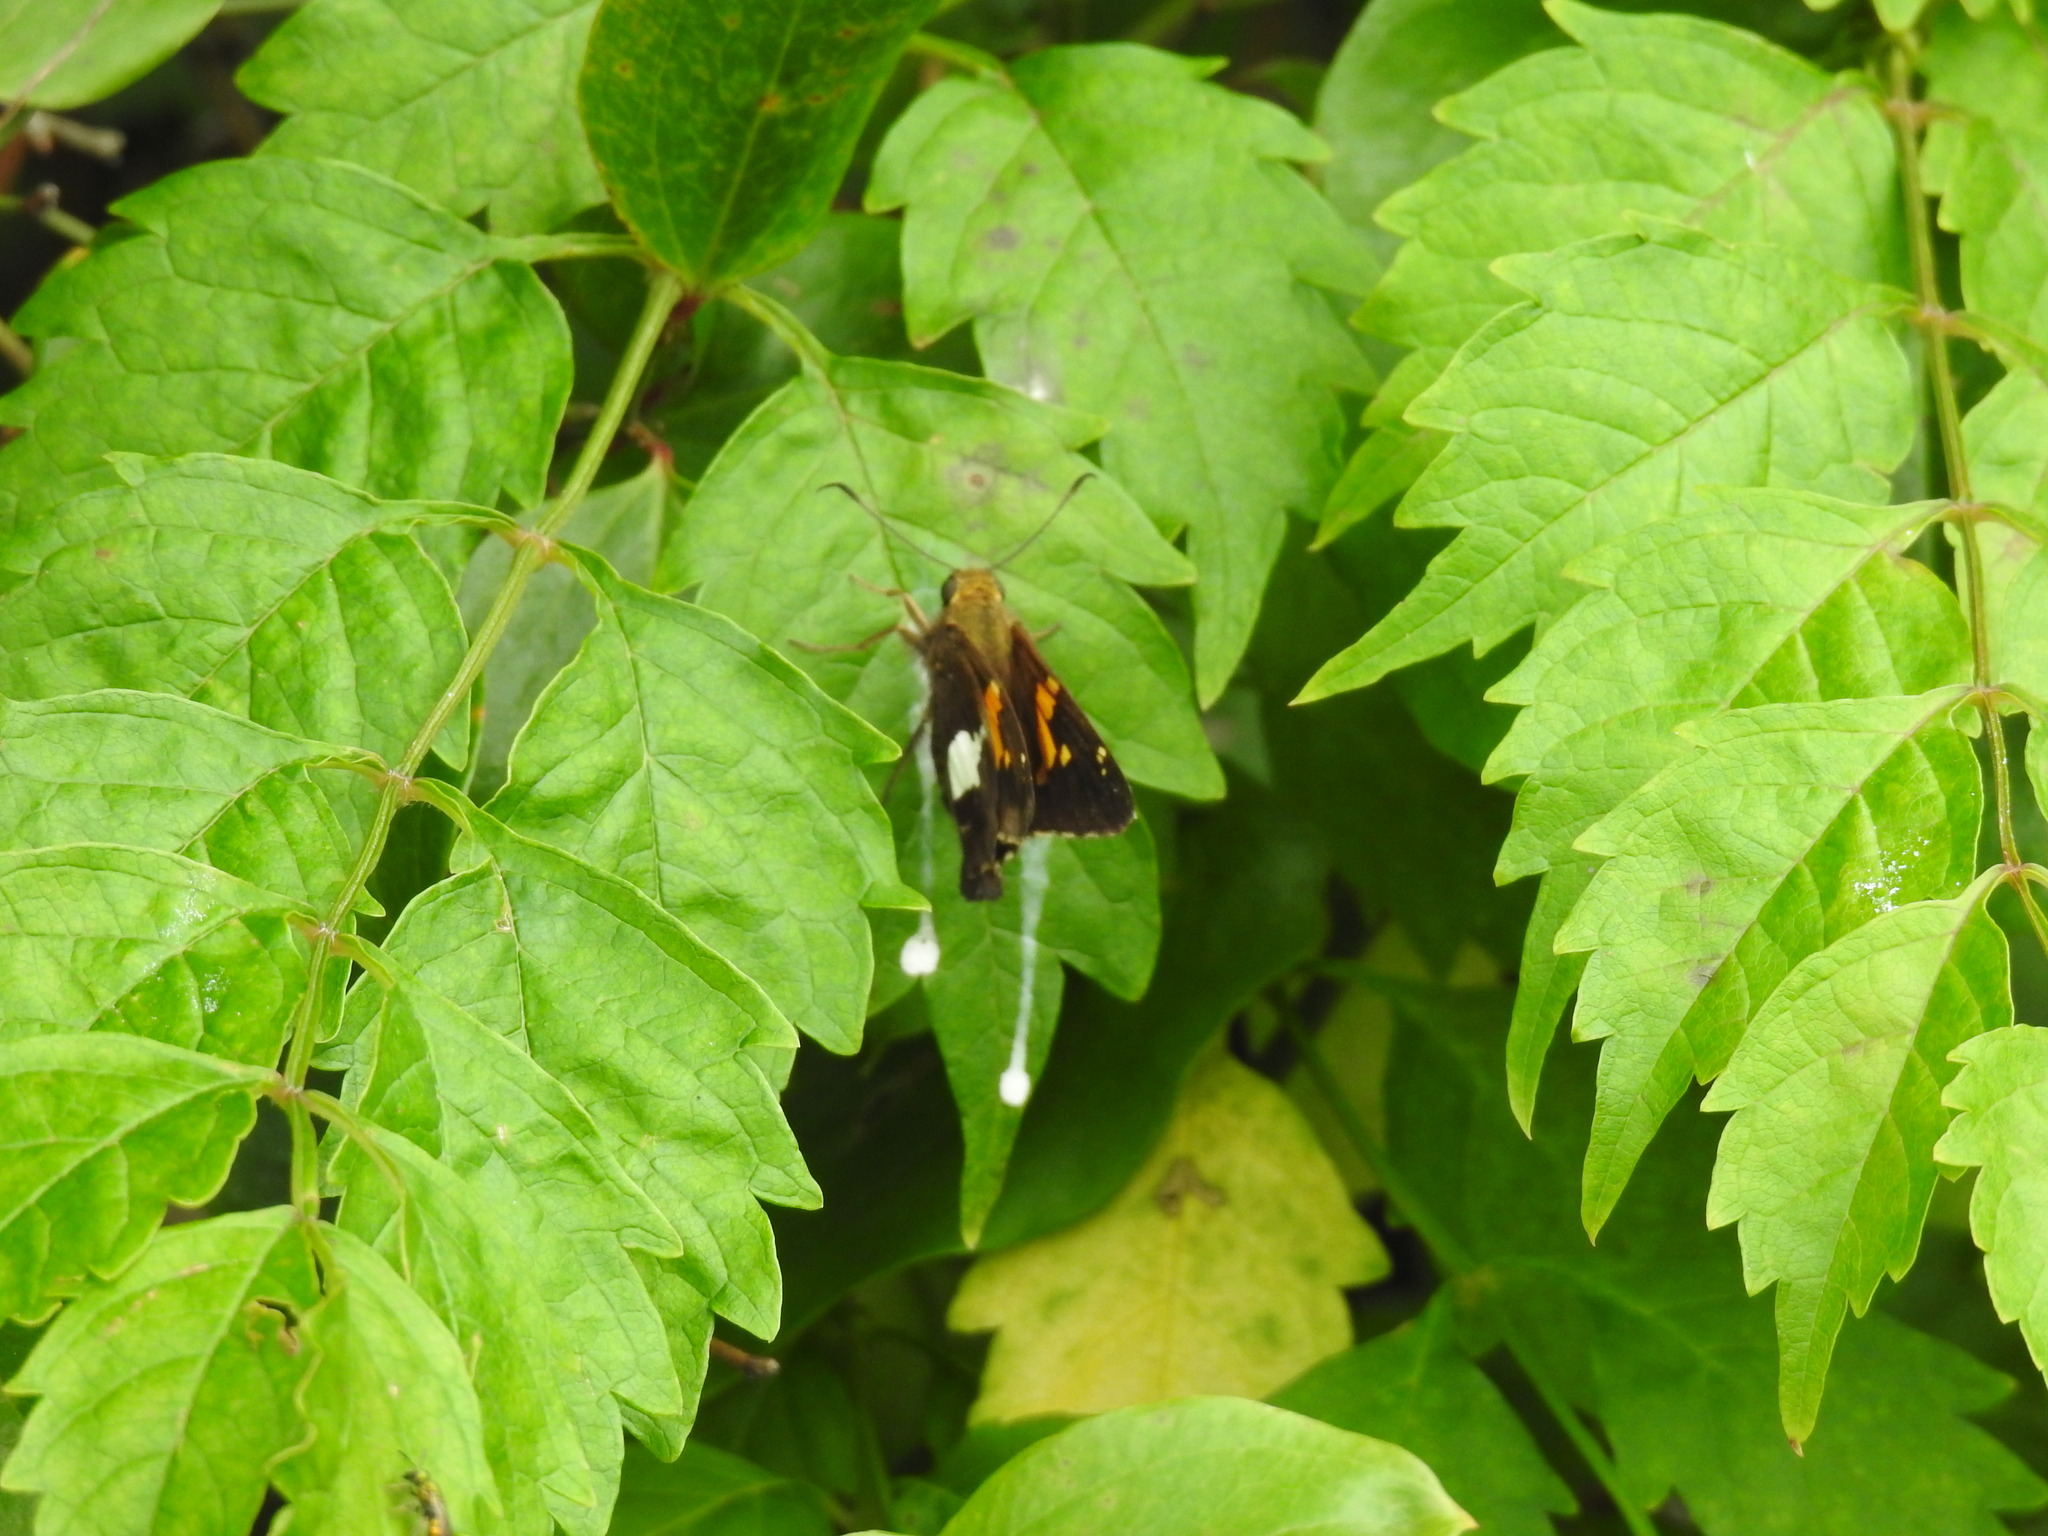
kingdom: Animalia
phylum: Arthropoda
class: Insecta
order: Lepidoptera
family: Hesperiidae
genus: Epargyreus
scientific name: Epargyreus clarus
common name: Silver-spotted skipper
